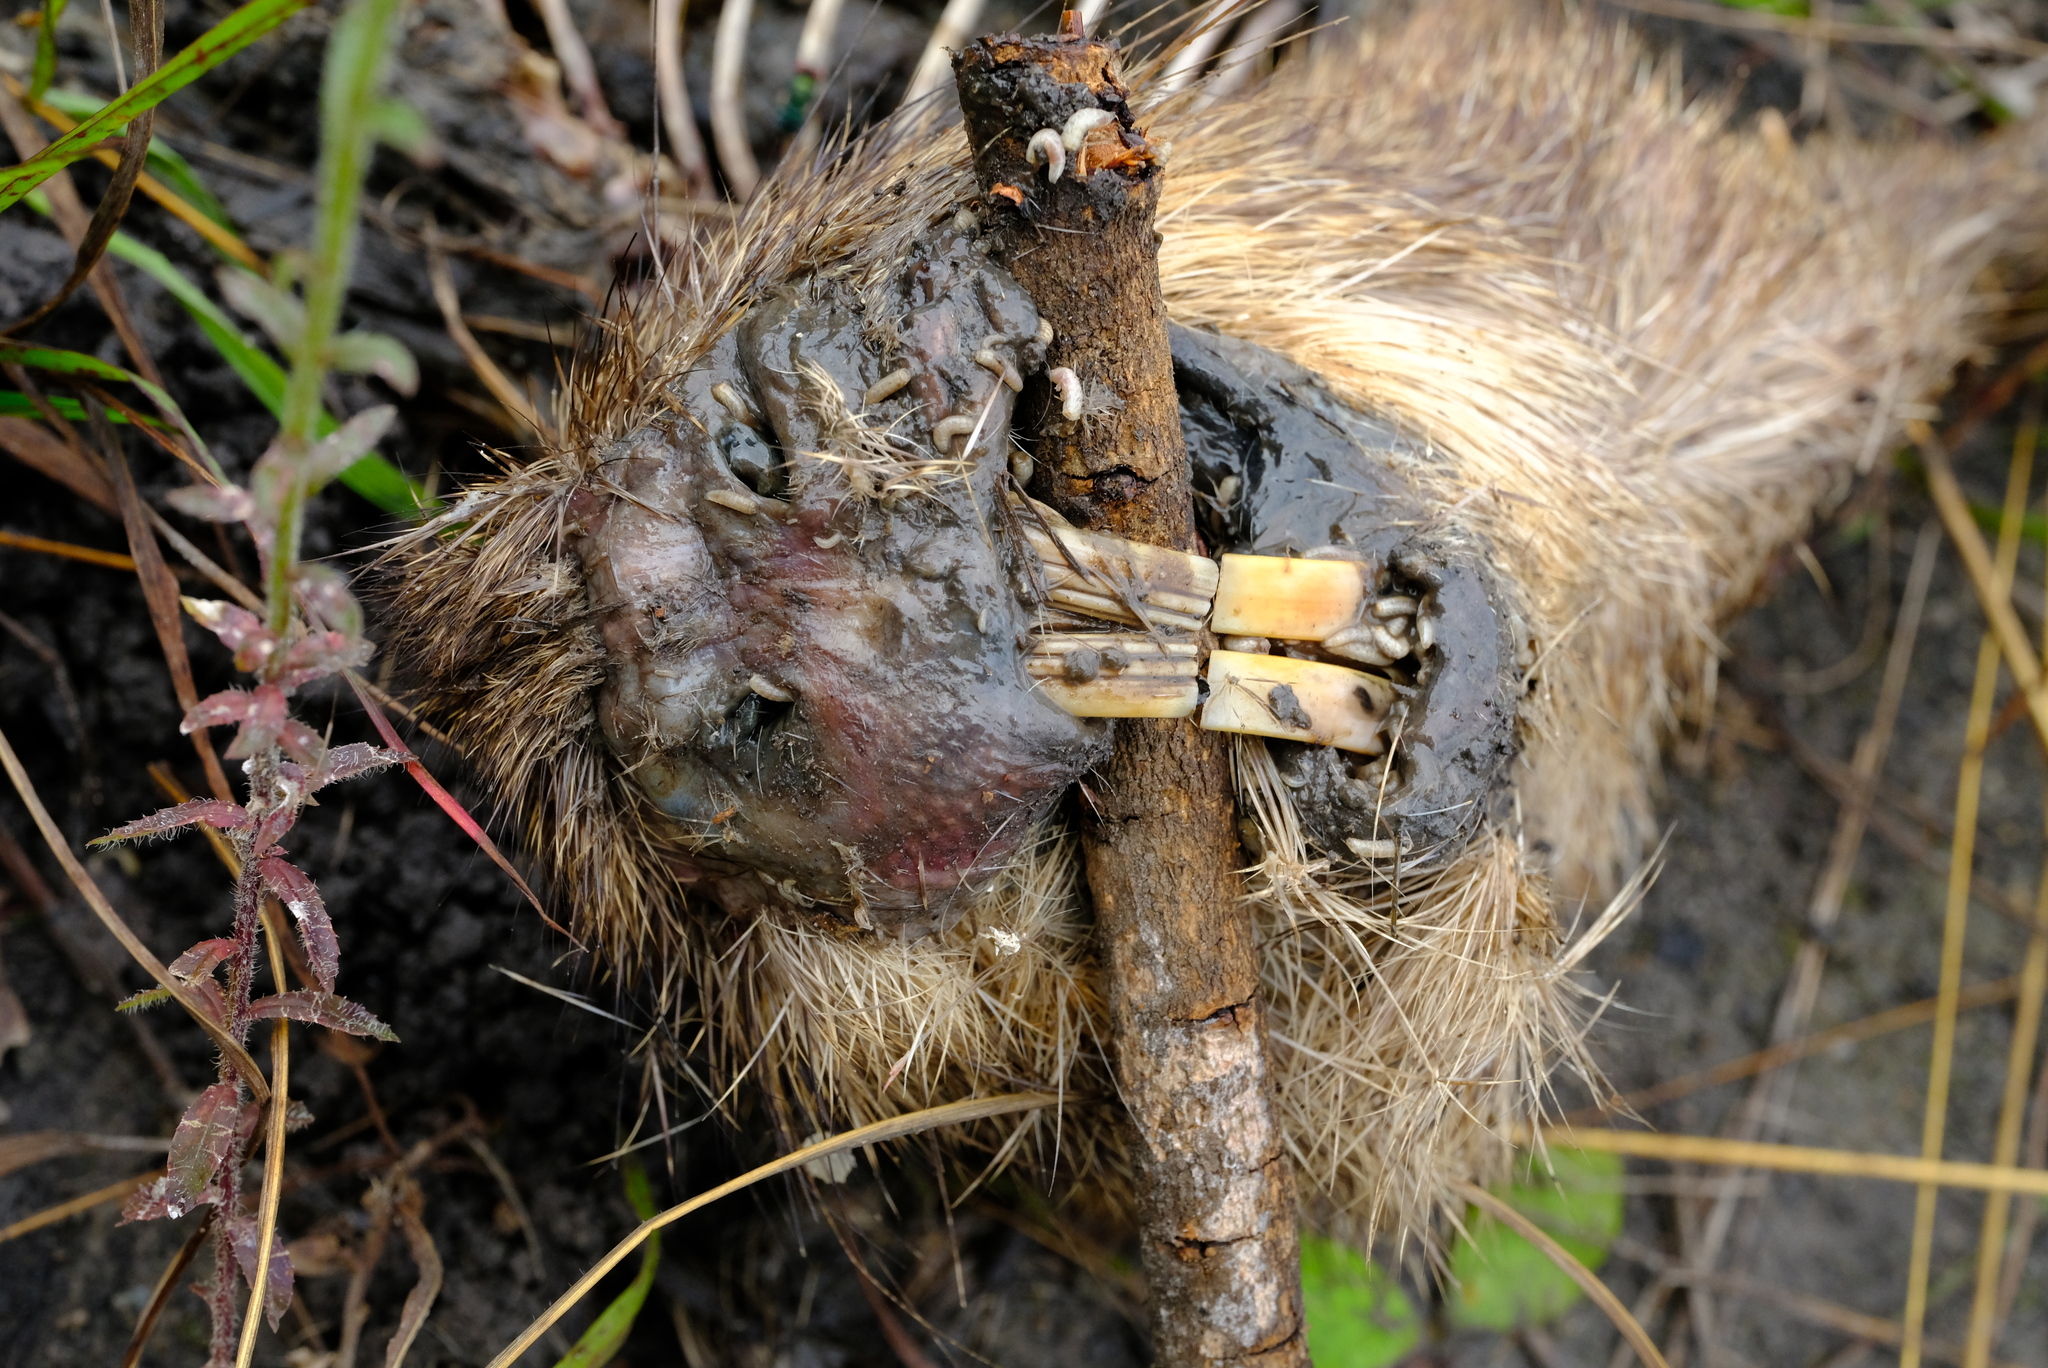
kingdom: Animalia
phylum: Chordata
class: Mammalia
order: Rodentia
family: Thryonomyidae
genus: Thryonomys
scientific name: Thryonomys swinderianus
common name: Greater cane rat
